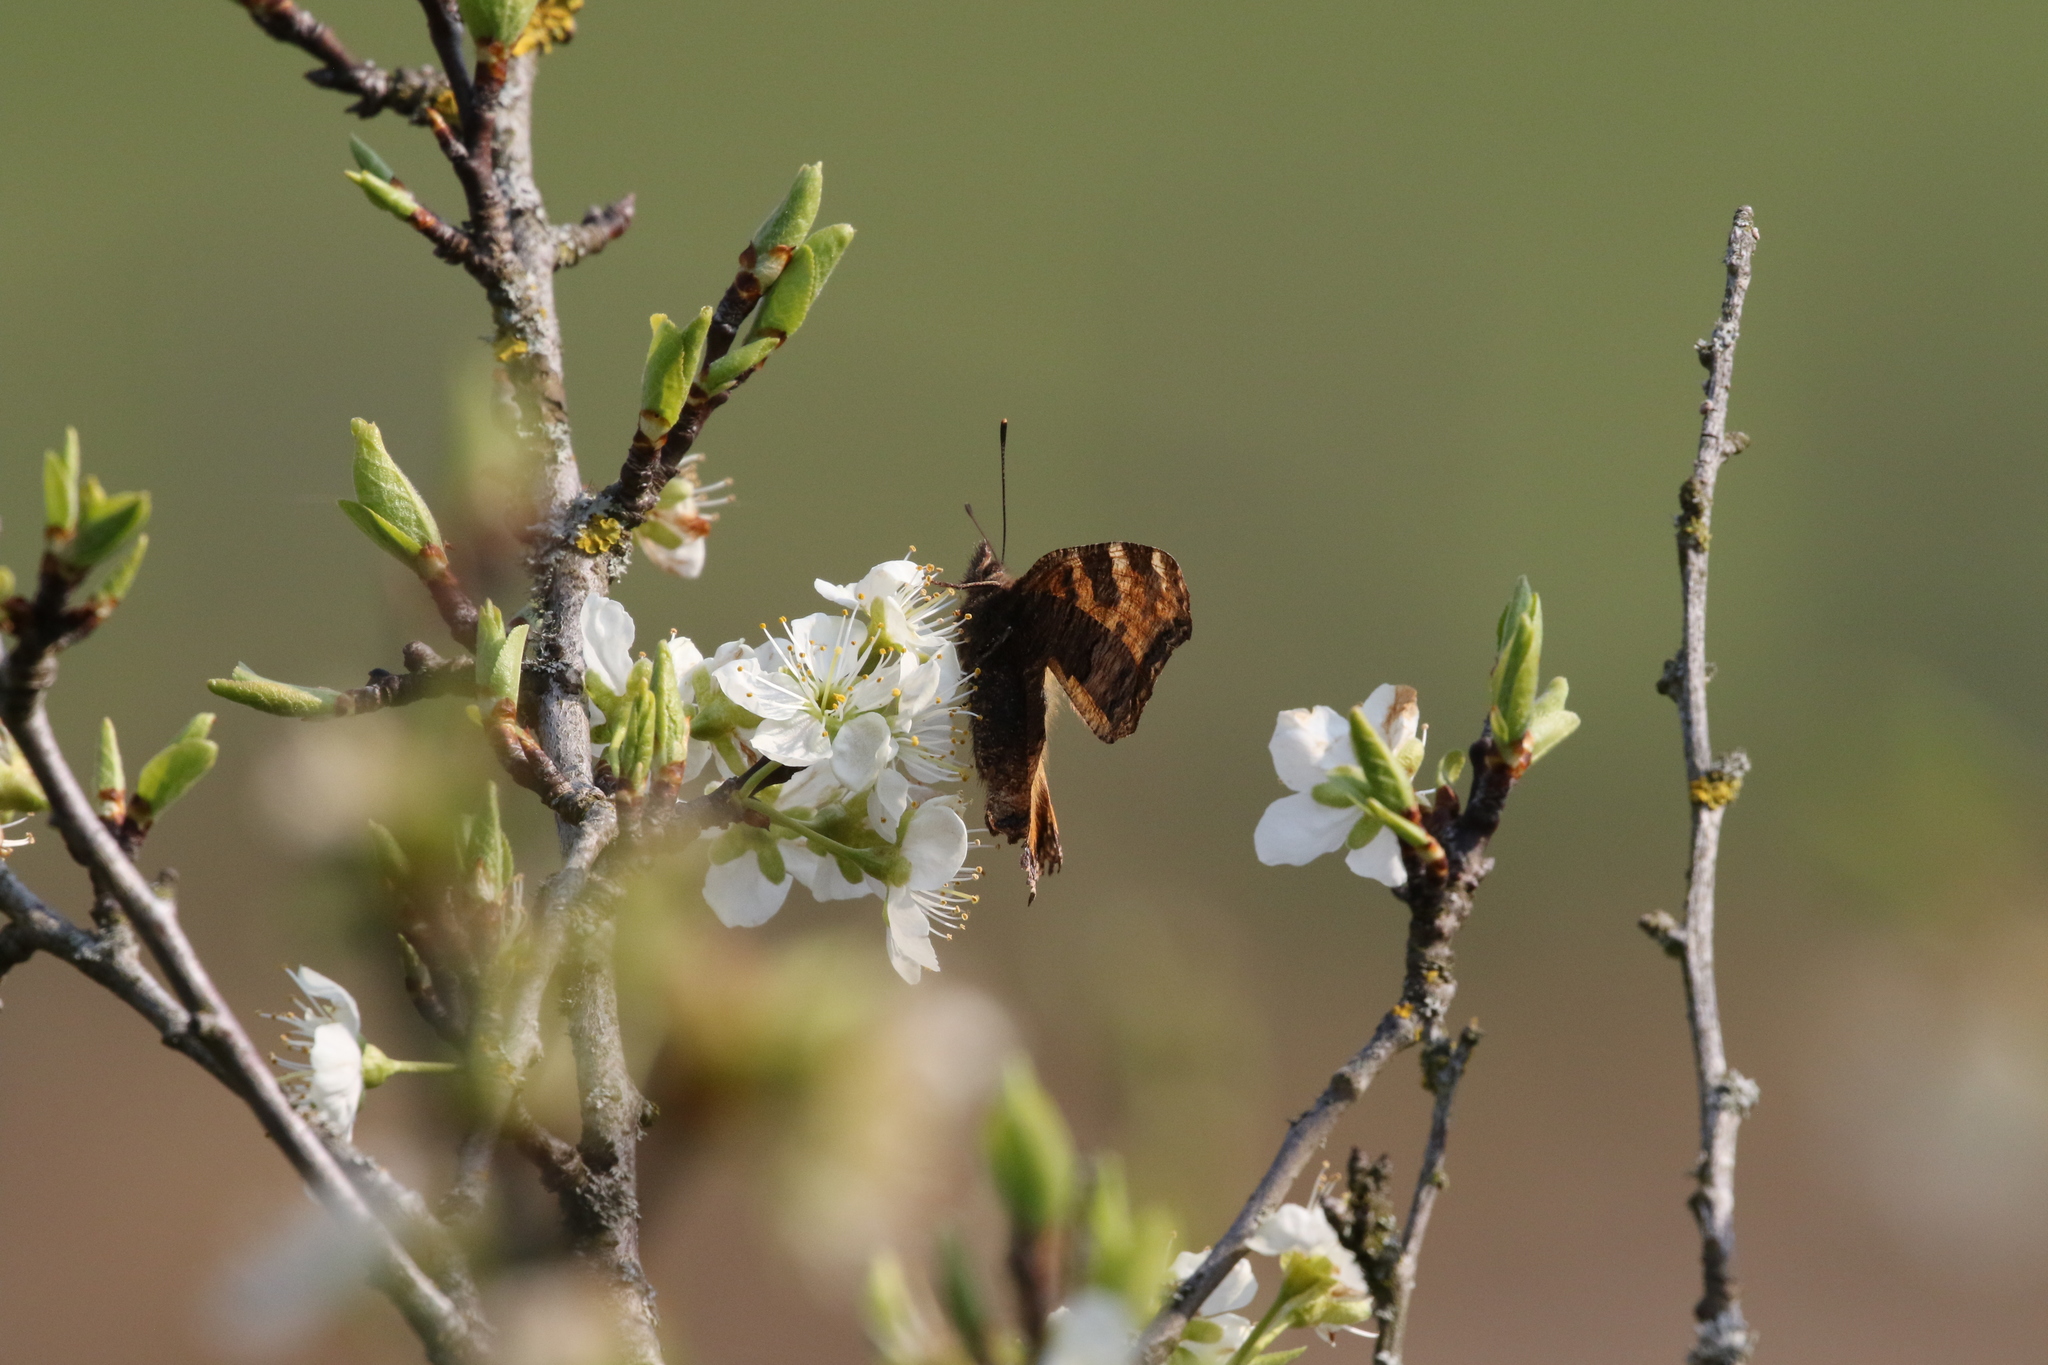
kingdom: Animalia
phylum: Arthropoda
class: Insecta
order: Lepidoptera
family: Nymphalidae
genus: Nymphalis
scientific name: Nymphalis polychloros
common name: Large tortoiseshell
